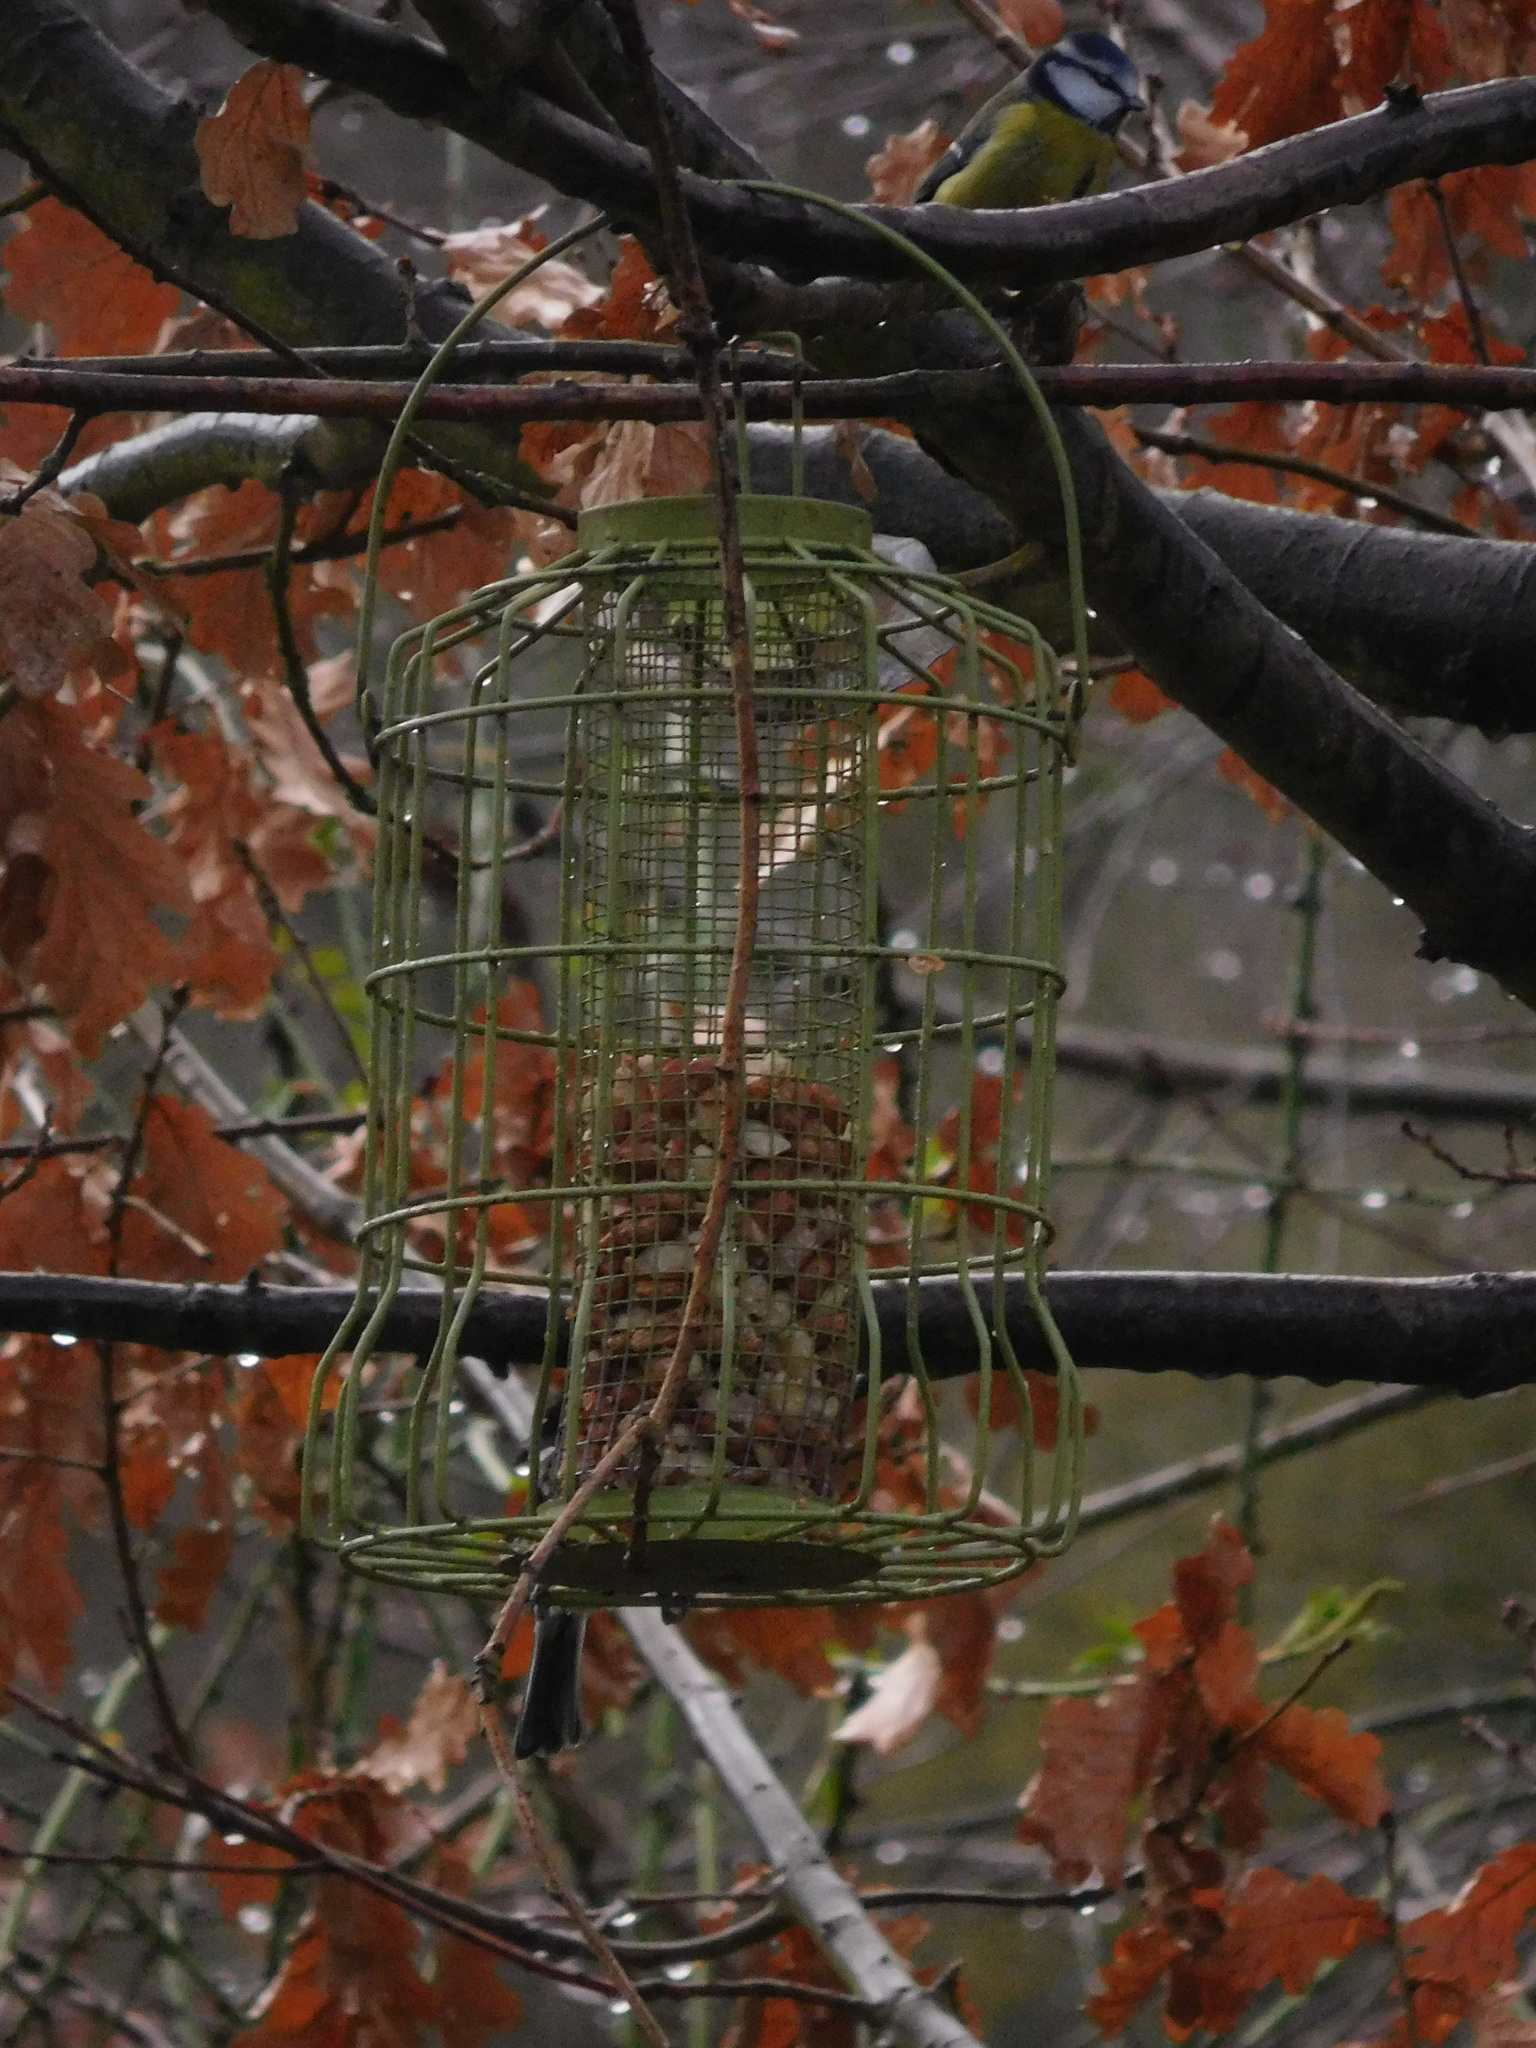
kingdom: Animalia
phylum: Chordata
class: Aves
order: Passeriformes
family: Paridae
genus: Cyanistes
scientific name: Cyanistes caeruleus
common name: Eurasian blue tit
